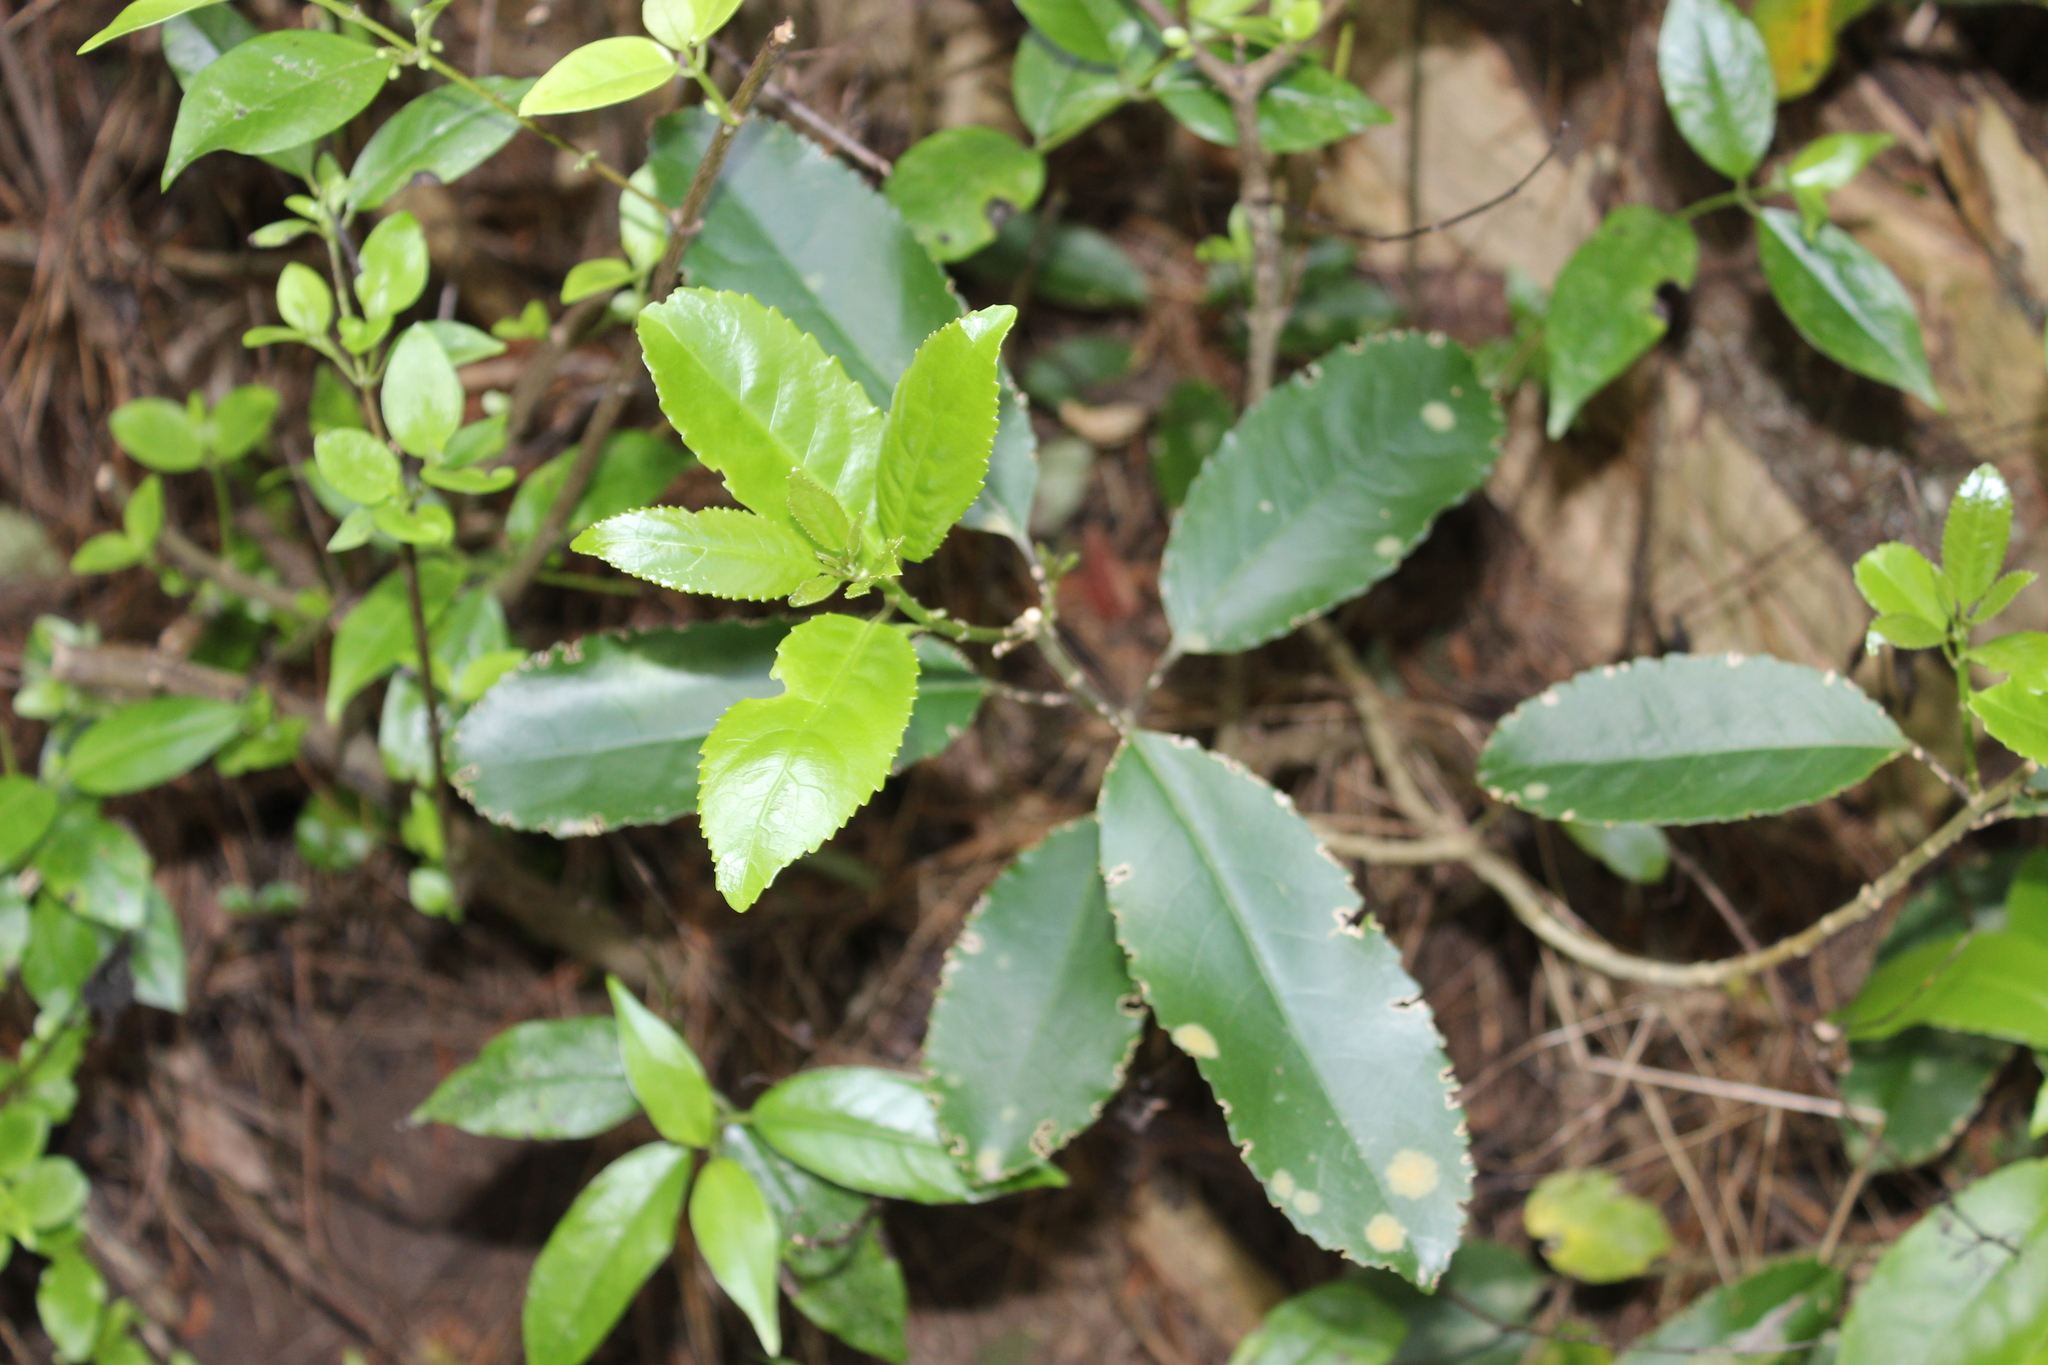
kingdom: Plantae
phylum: Tracheophyta
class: Magnoliopsida
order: Malpighiales
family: Violaceae
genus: Melicytus
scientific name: Melicytus ramiflorus
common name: Mahoe
